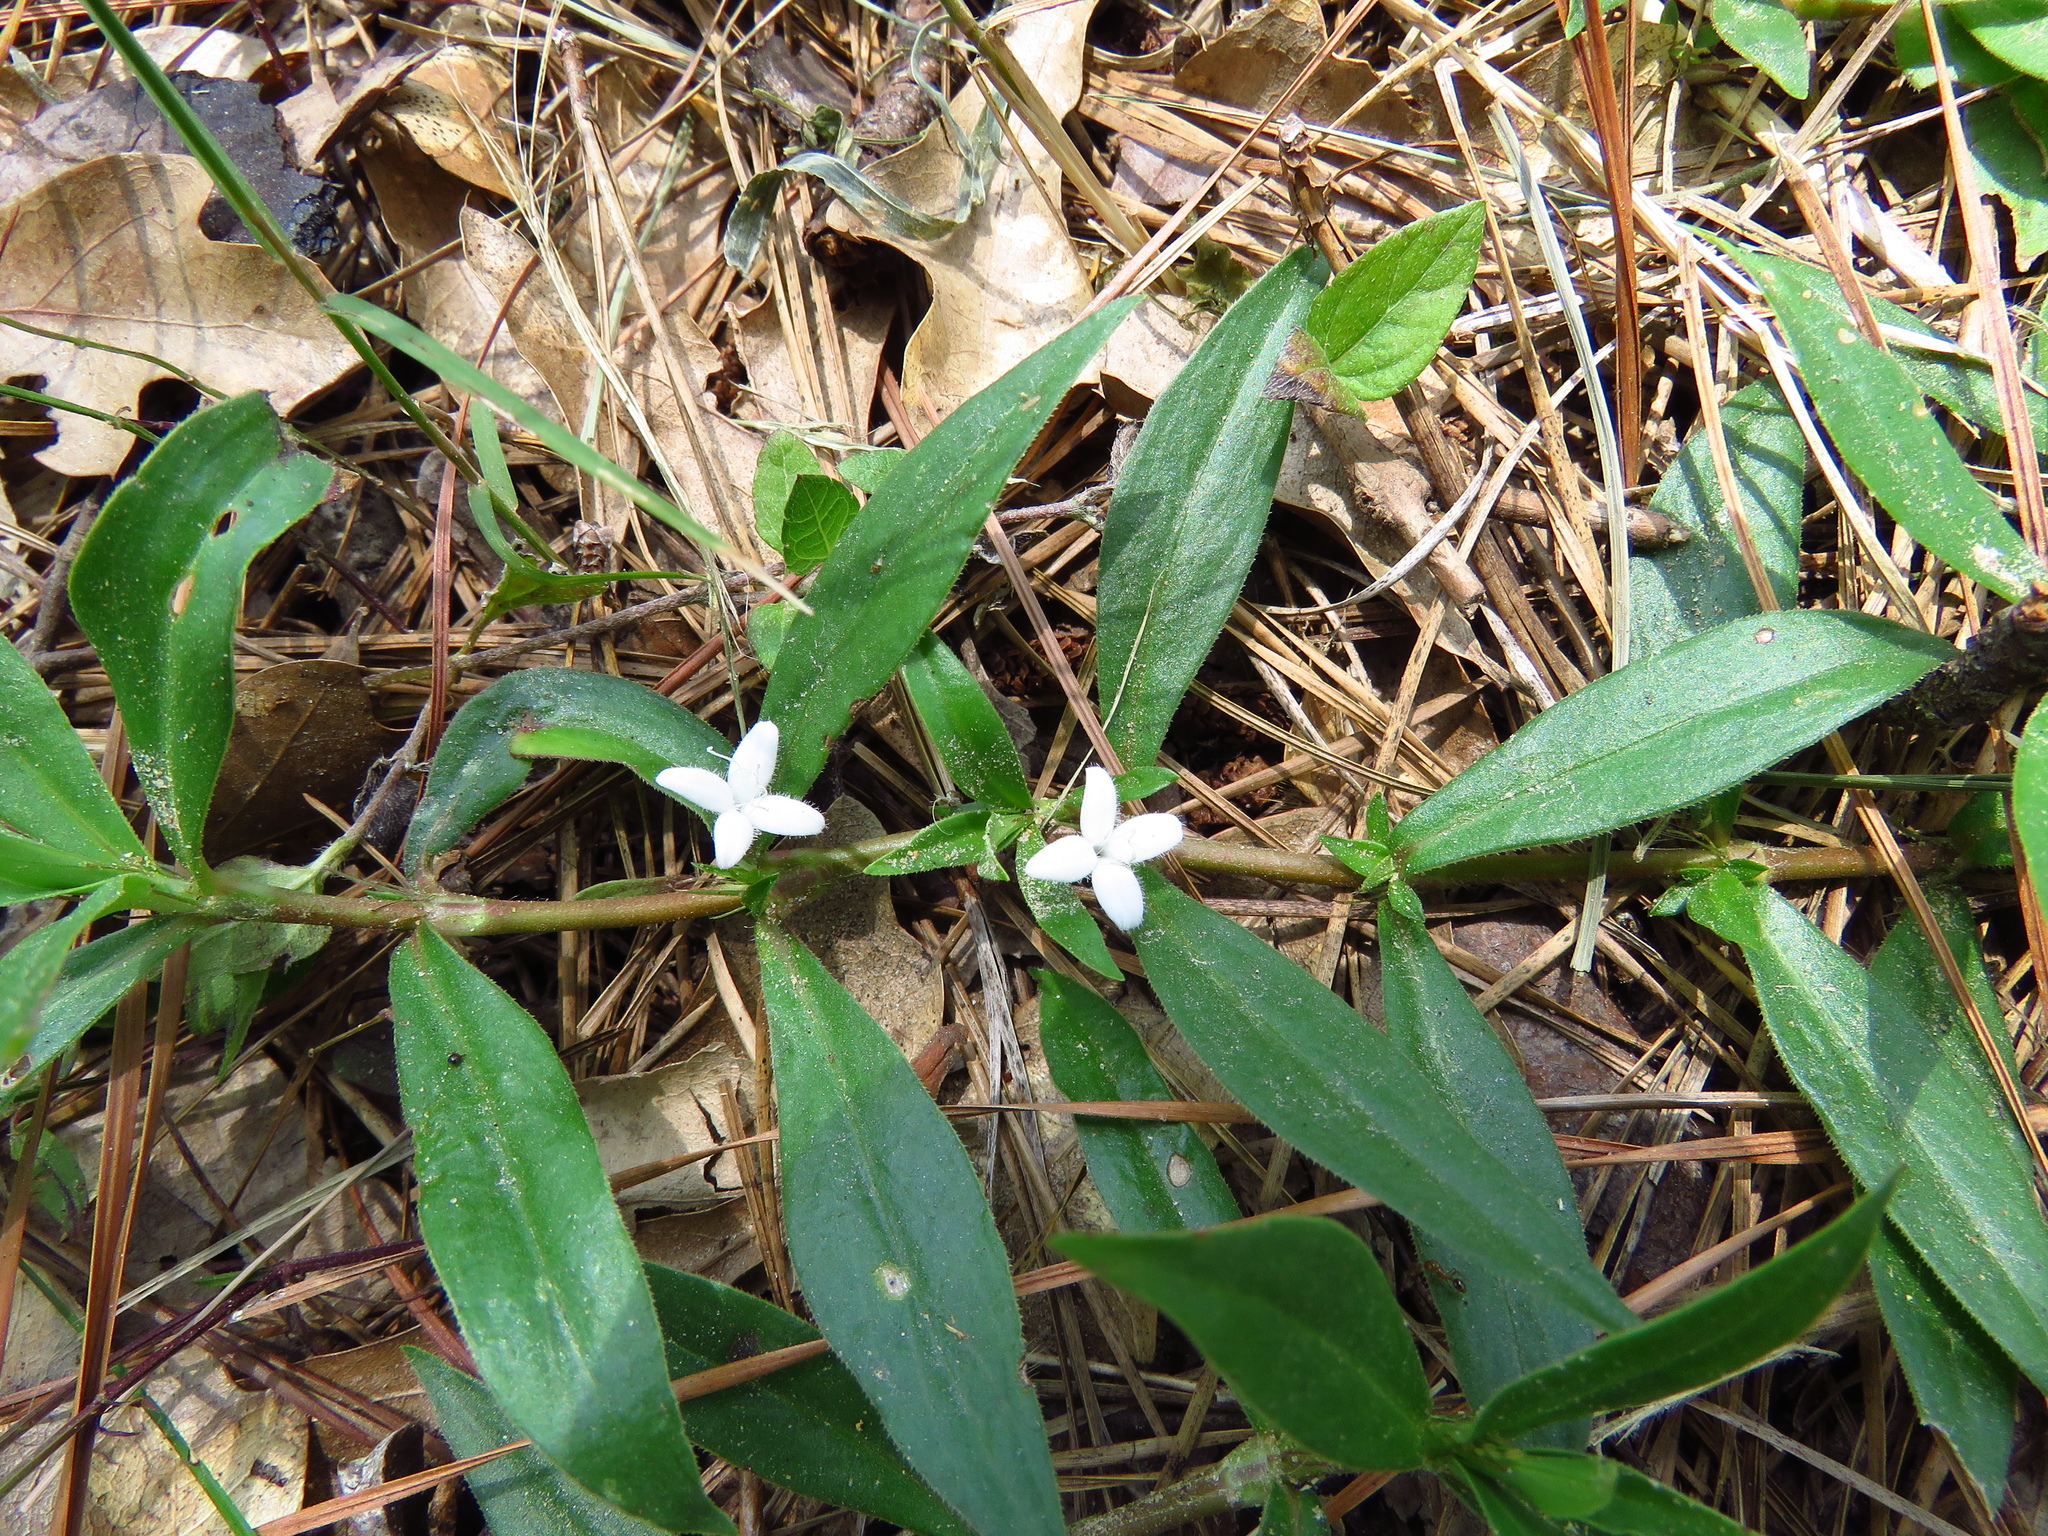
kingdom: Plantae
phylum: Tracheophyta
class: Magnoliopsida
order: Gentianales
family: Rubiaceae
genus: Diodia
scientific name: Diodia virginiana
